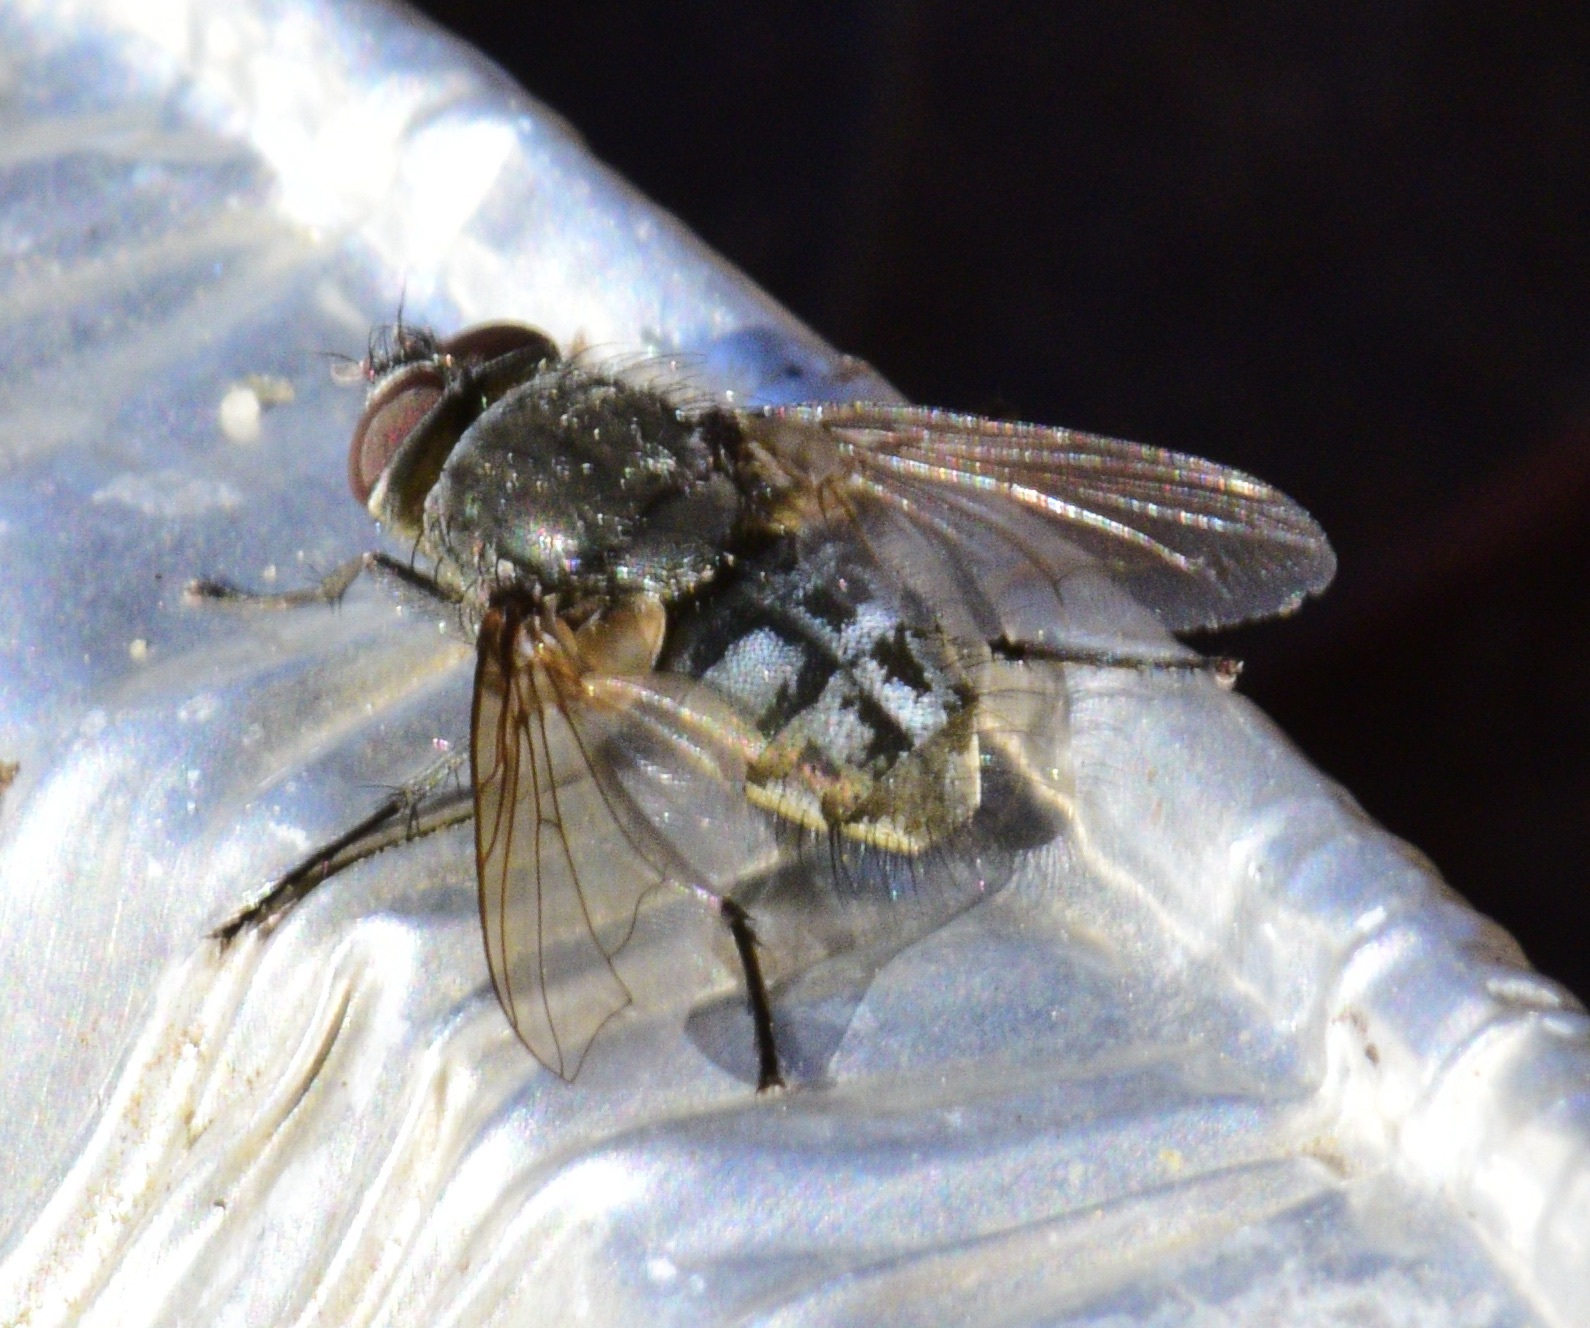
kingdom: Animalia
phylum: Arthropoda
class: Insecta
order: Diptera
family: Polleniidae
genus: Pollenia
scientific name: Pollenia
